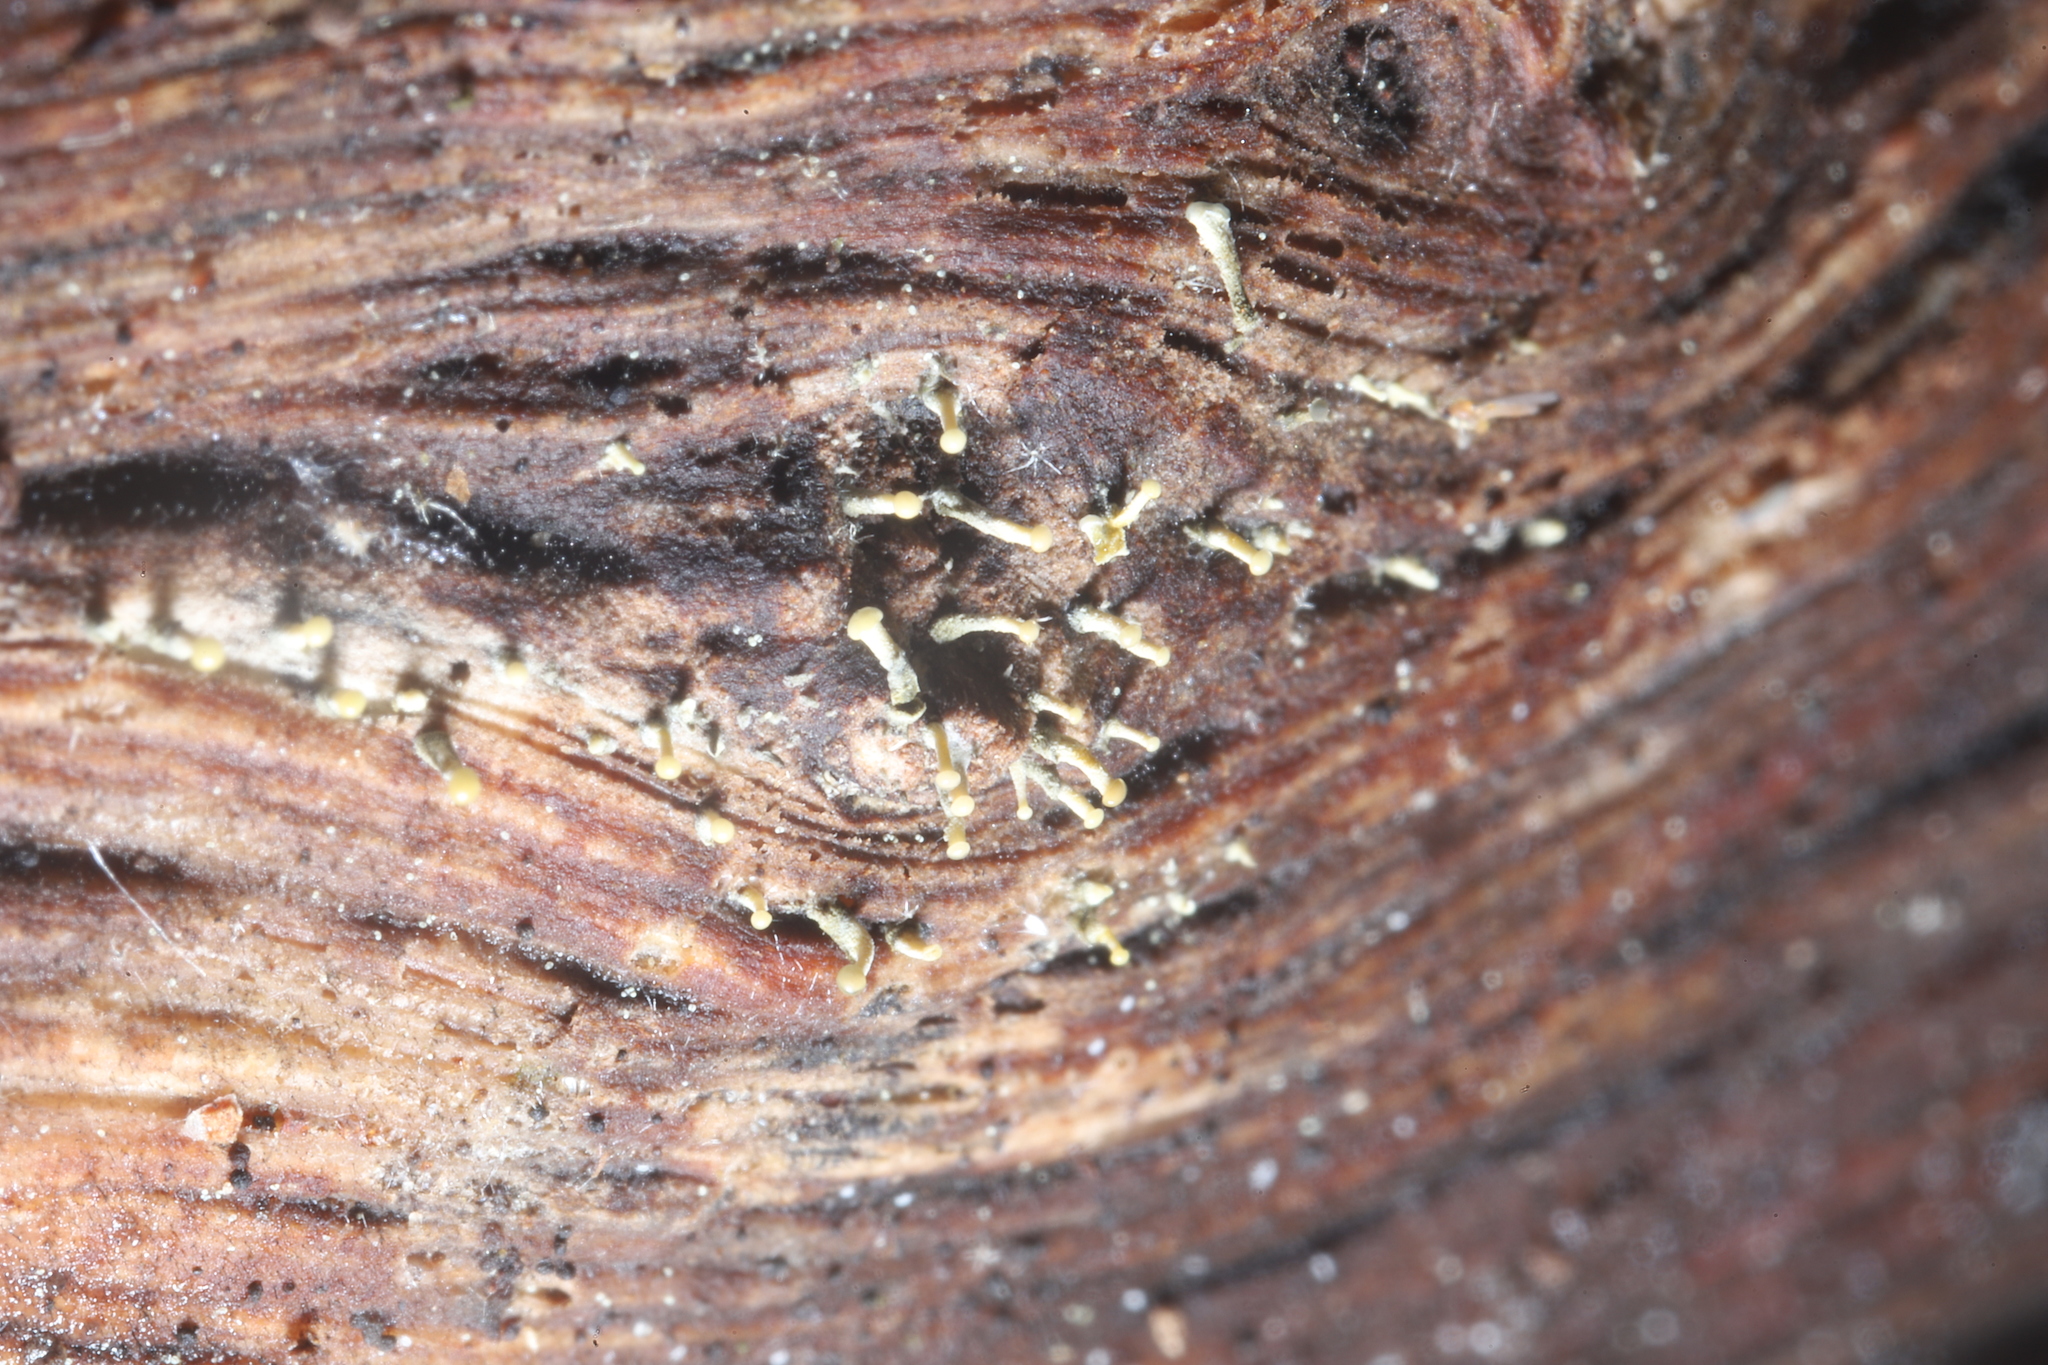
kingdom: Fungi
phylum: Ascomycota
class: Sordariomycetes
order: Hypocreales
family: Hypocreaceae
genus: Trichoderma
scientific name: Trichoderma flavipes
